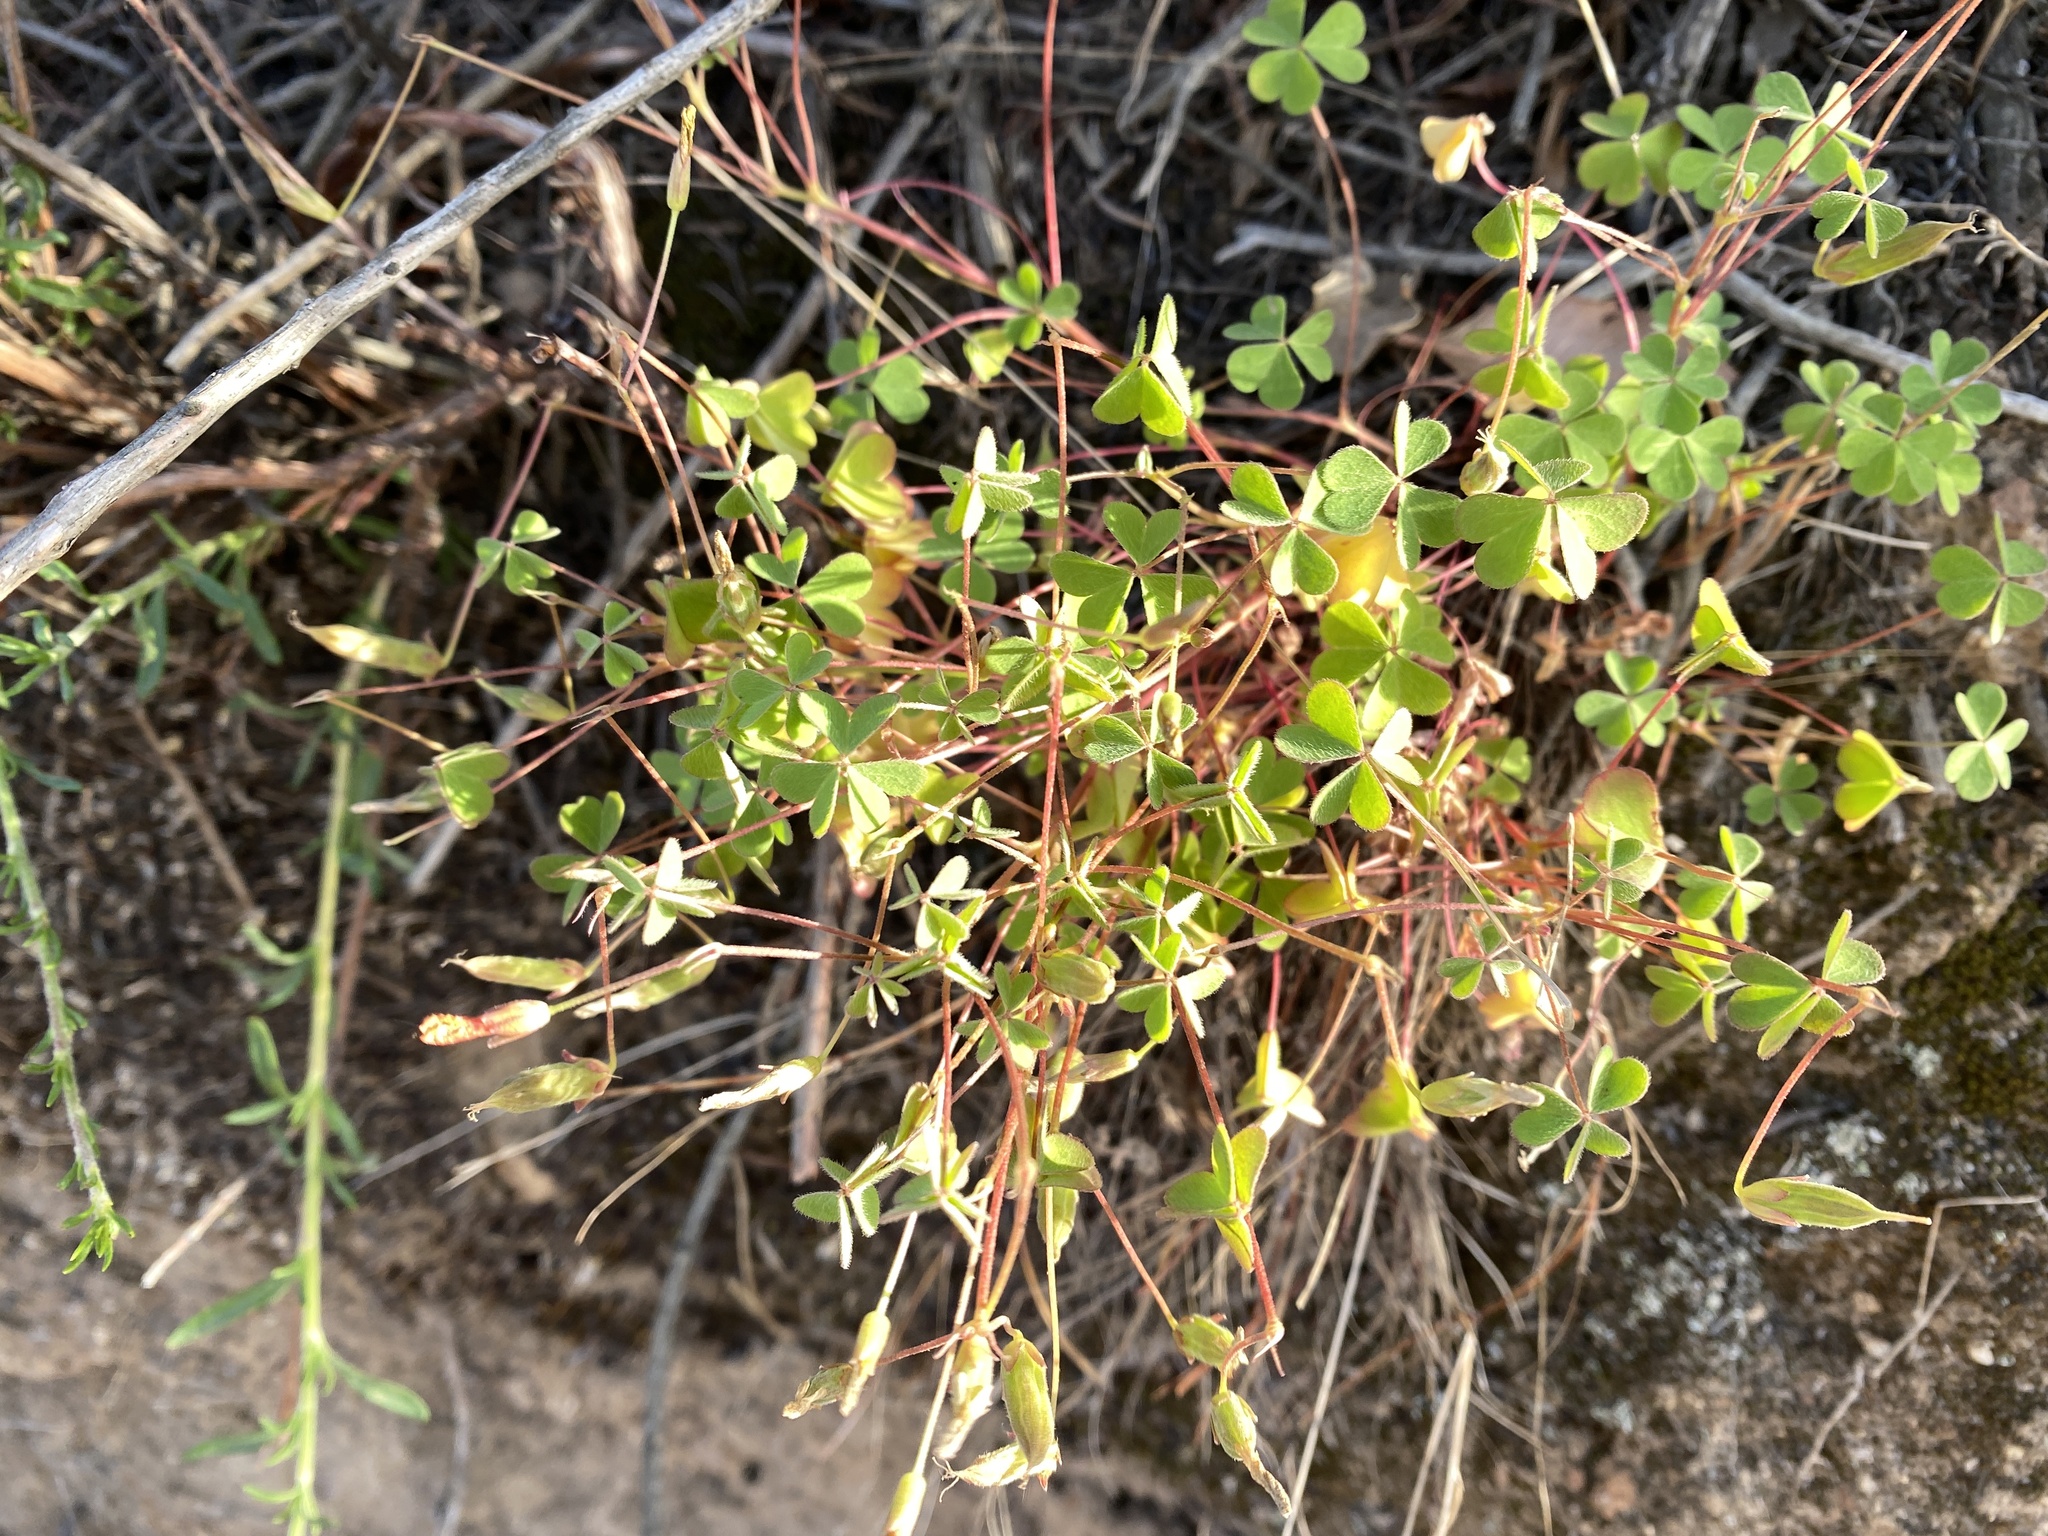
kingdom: Plantae
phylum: Tracheophyta
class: Magnoliopsida
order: Oxalidales
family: Oxalidaceae
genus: Oxalis
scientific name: Oxalis californica
